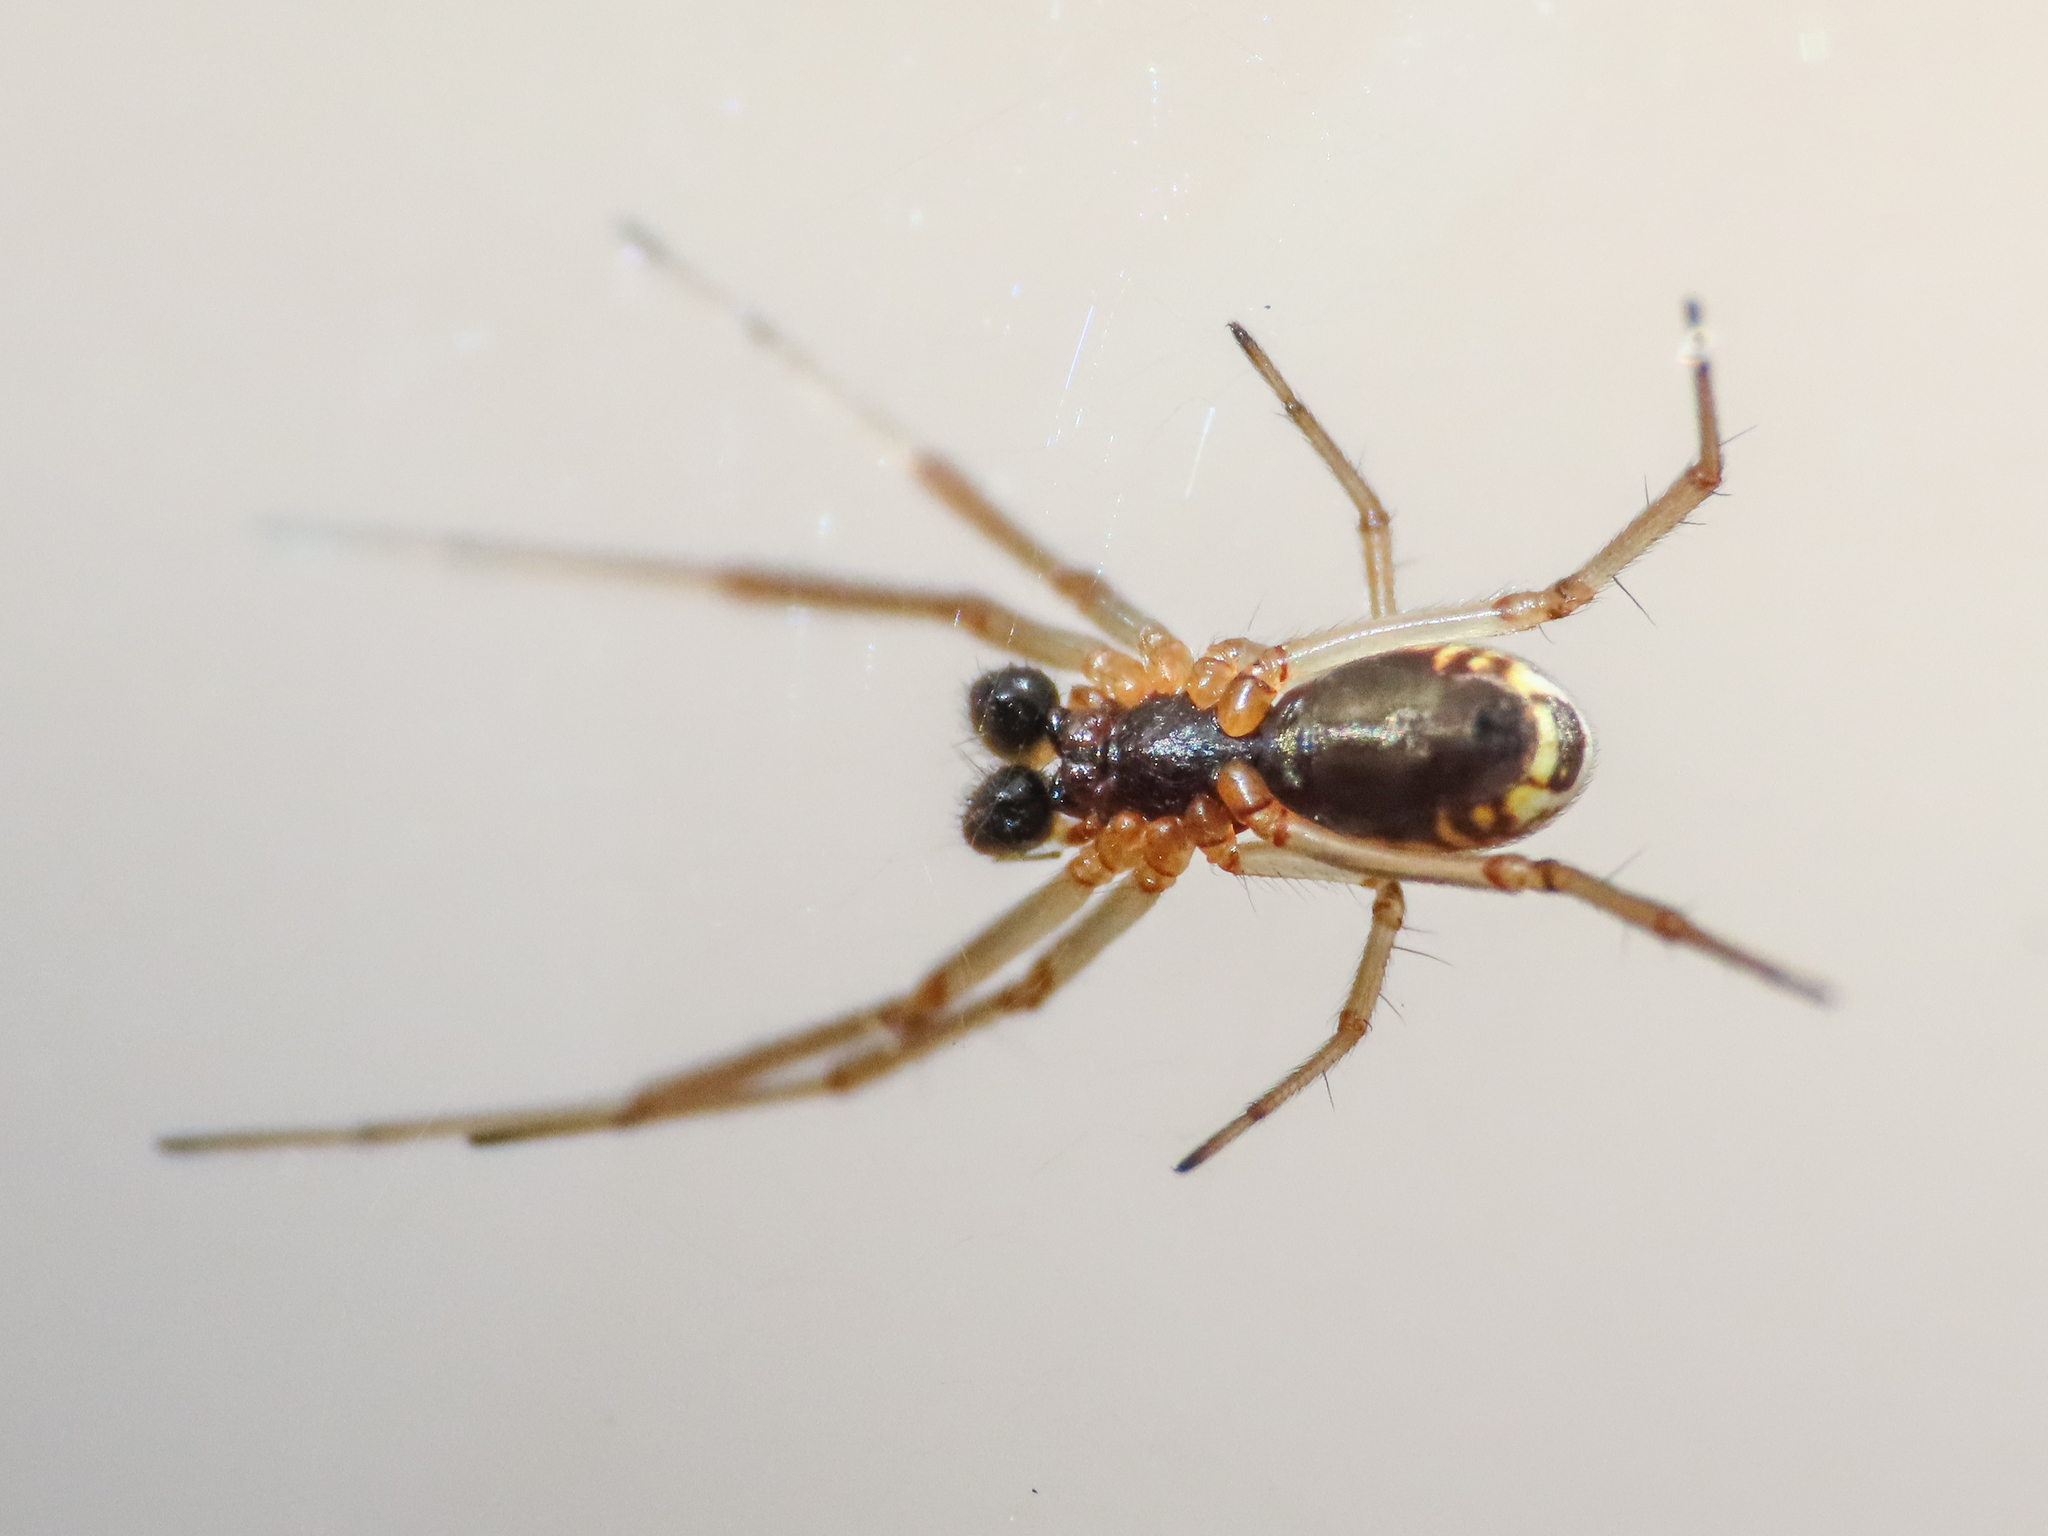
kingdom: Animalia
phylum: Arthropoda
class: Arachnida
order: Araneae
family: Linyphiidae
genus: Frontinellina
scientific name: Frontinellina frutetorum
